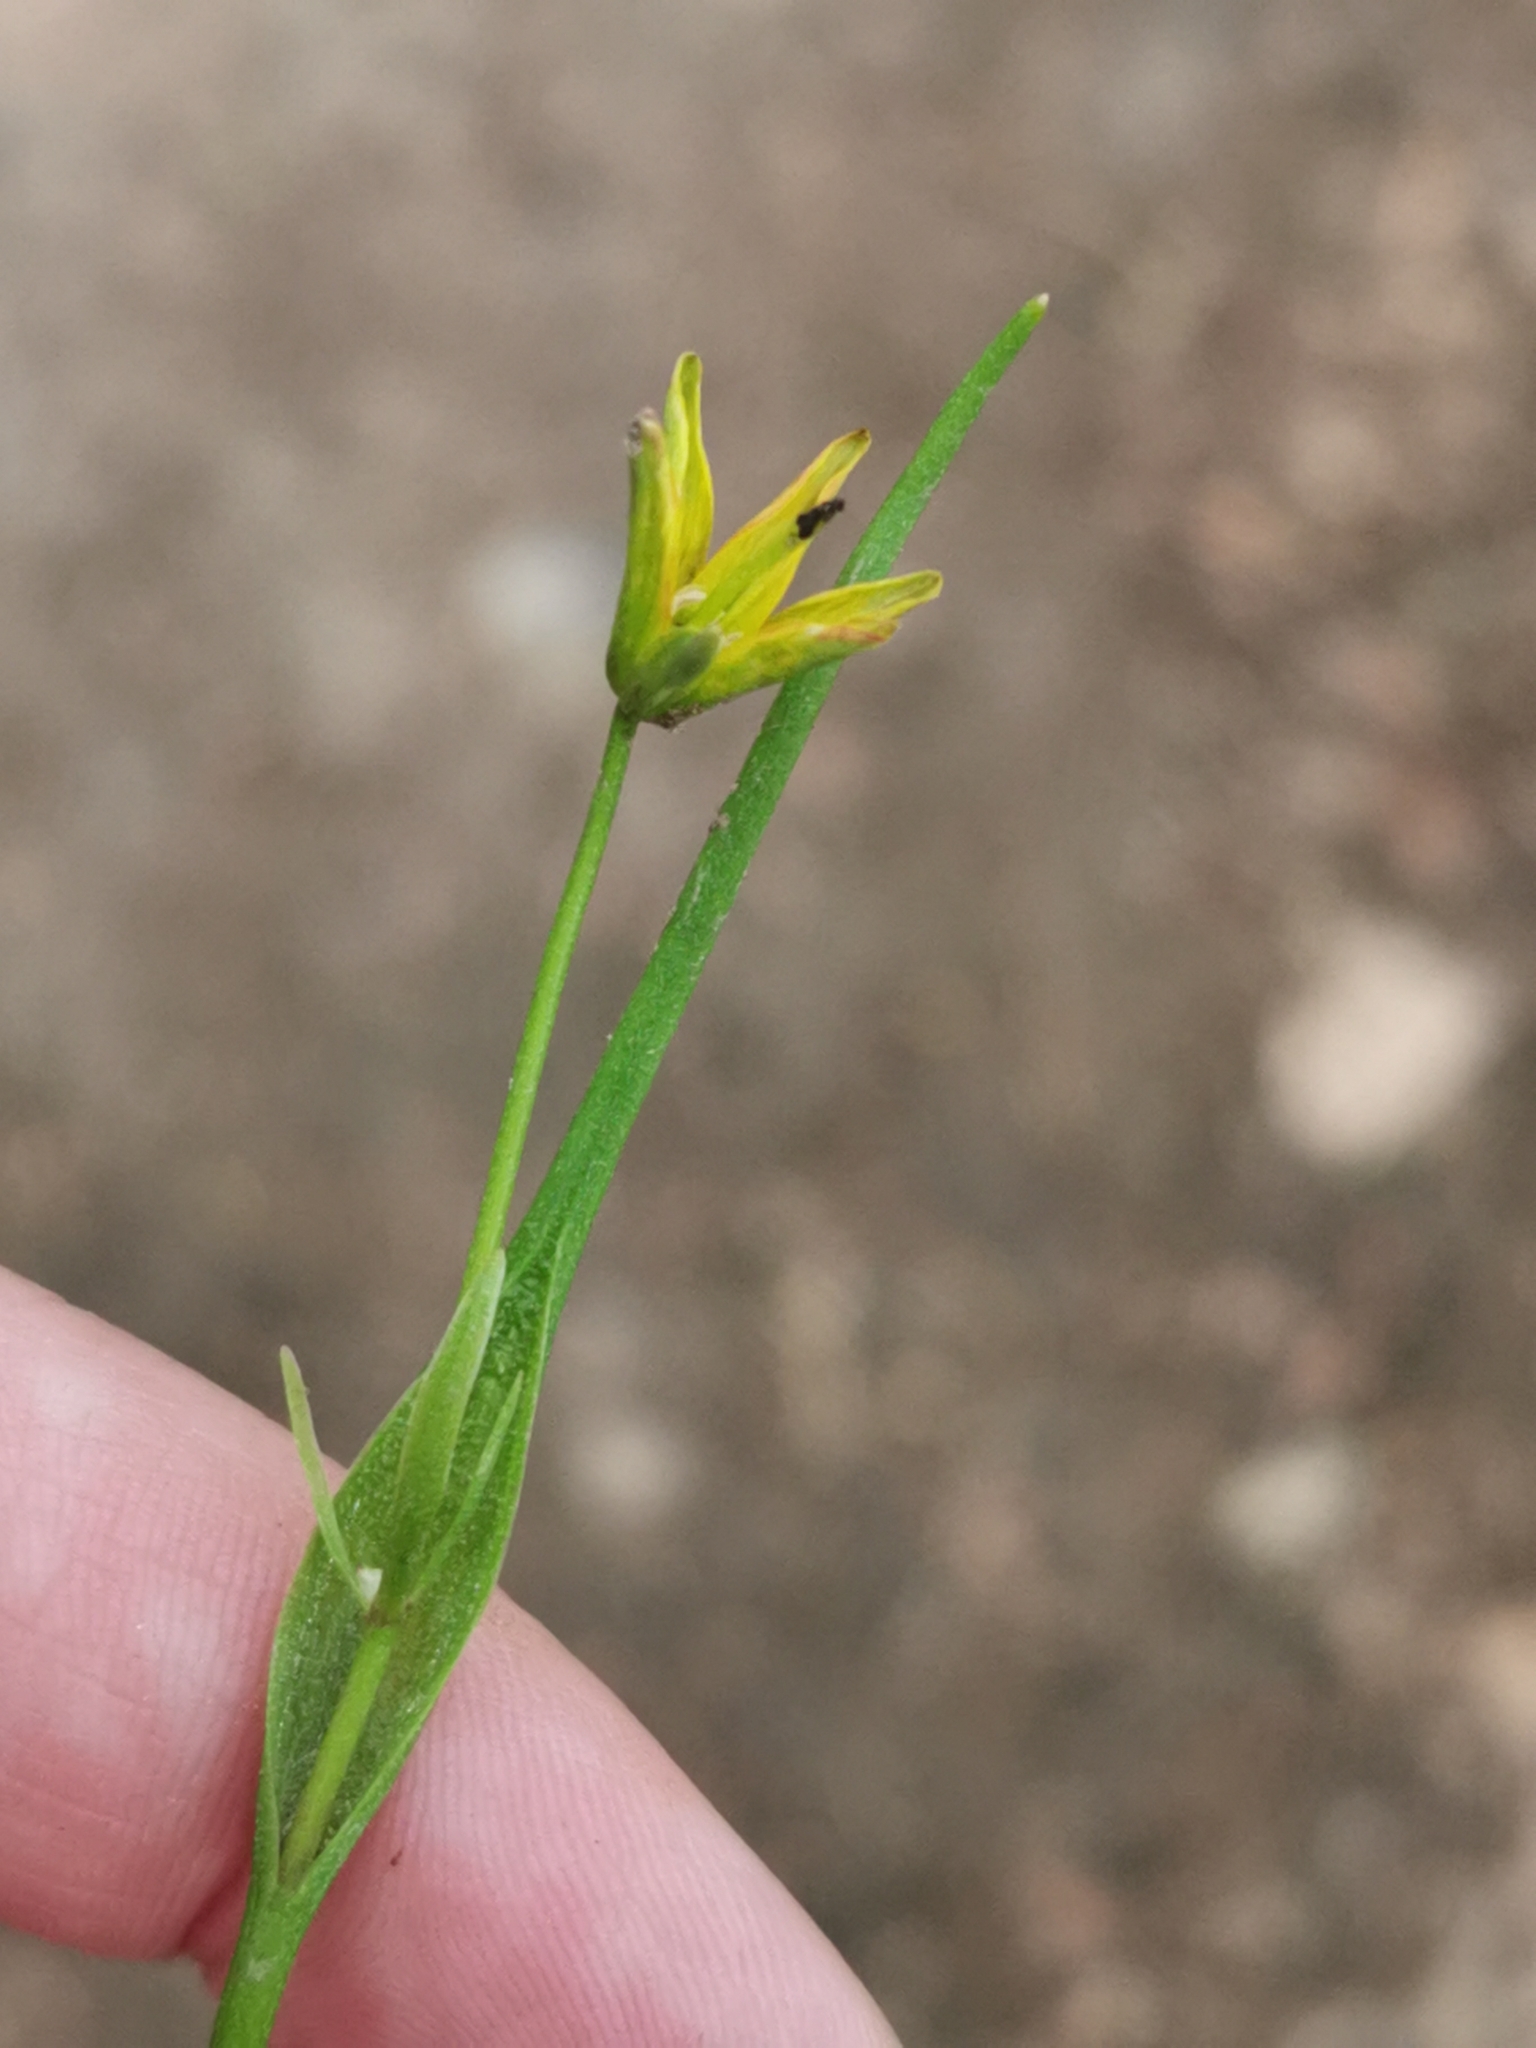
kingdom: Plantae
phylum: Tracheophyta
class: Liliopsida
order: Liliales
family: Liliaceae
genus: Gagea
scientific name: Gagea spathacea
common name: Belgian gagea
